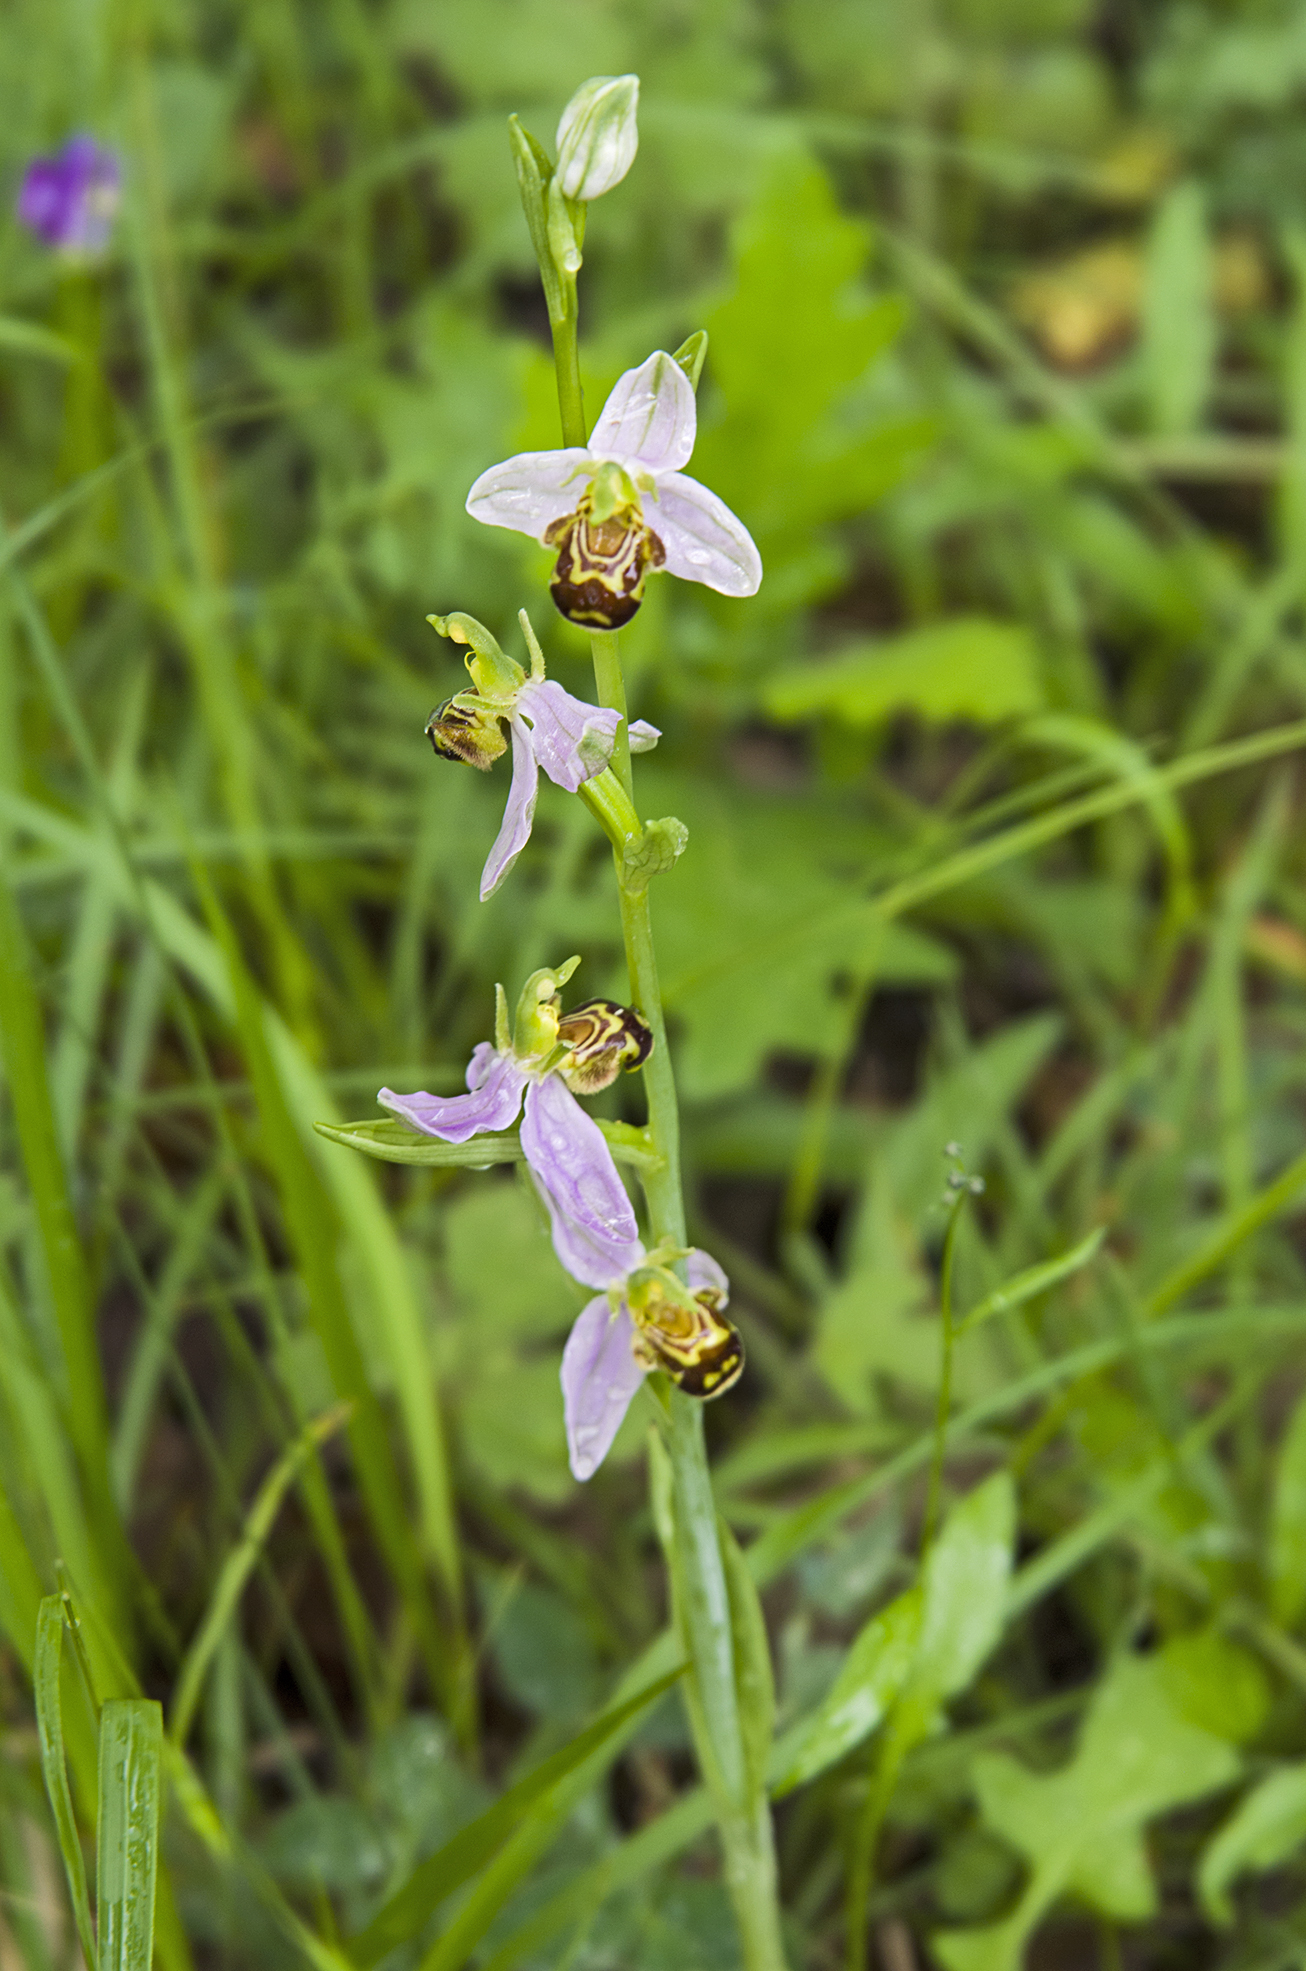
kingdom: Plantae
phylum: Tracheophyta
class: Liliopsida
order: Asparagales
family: Orchidaceae
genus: Ophrys
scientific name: Ophrys apifera
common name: Bee orchid
